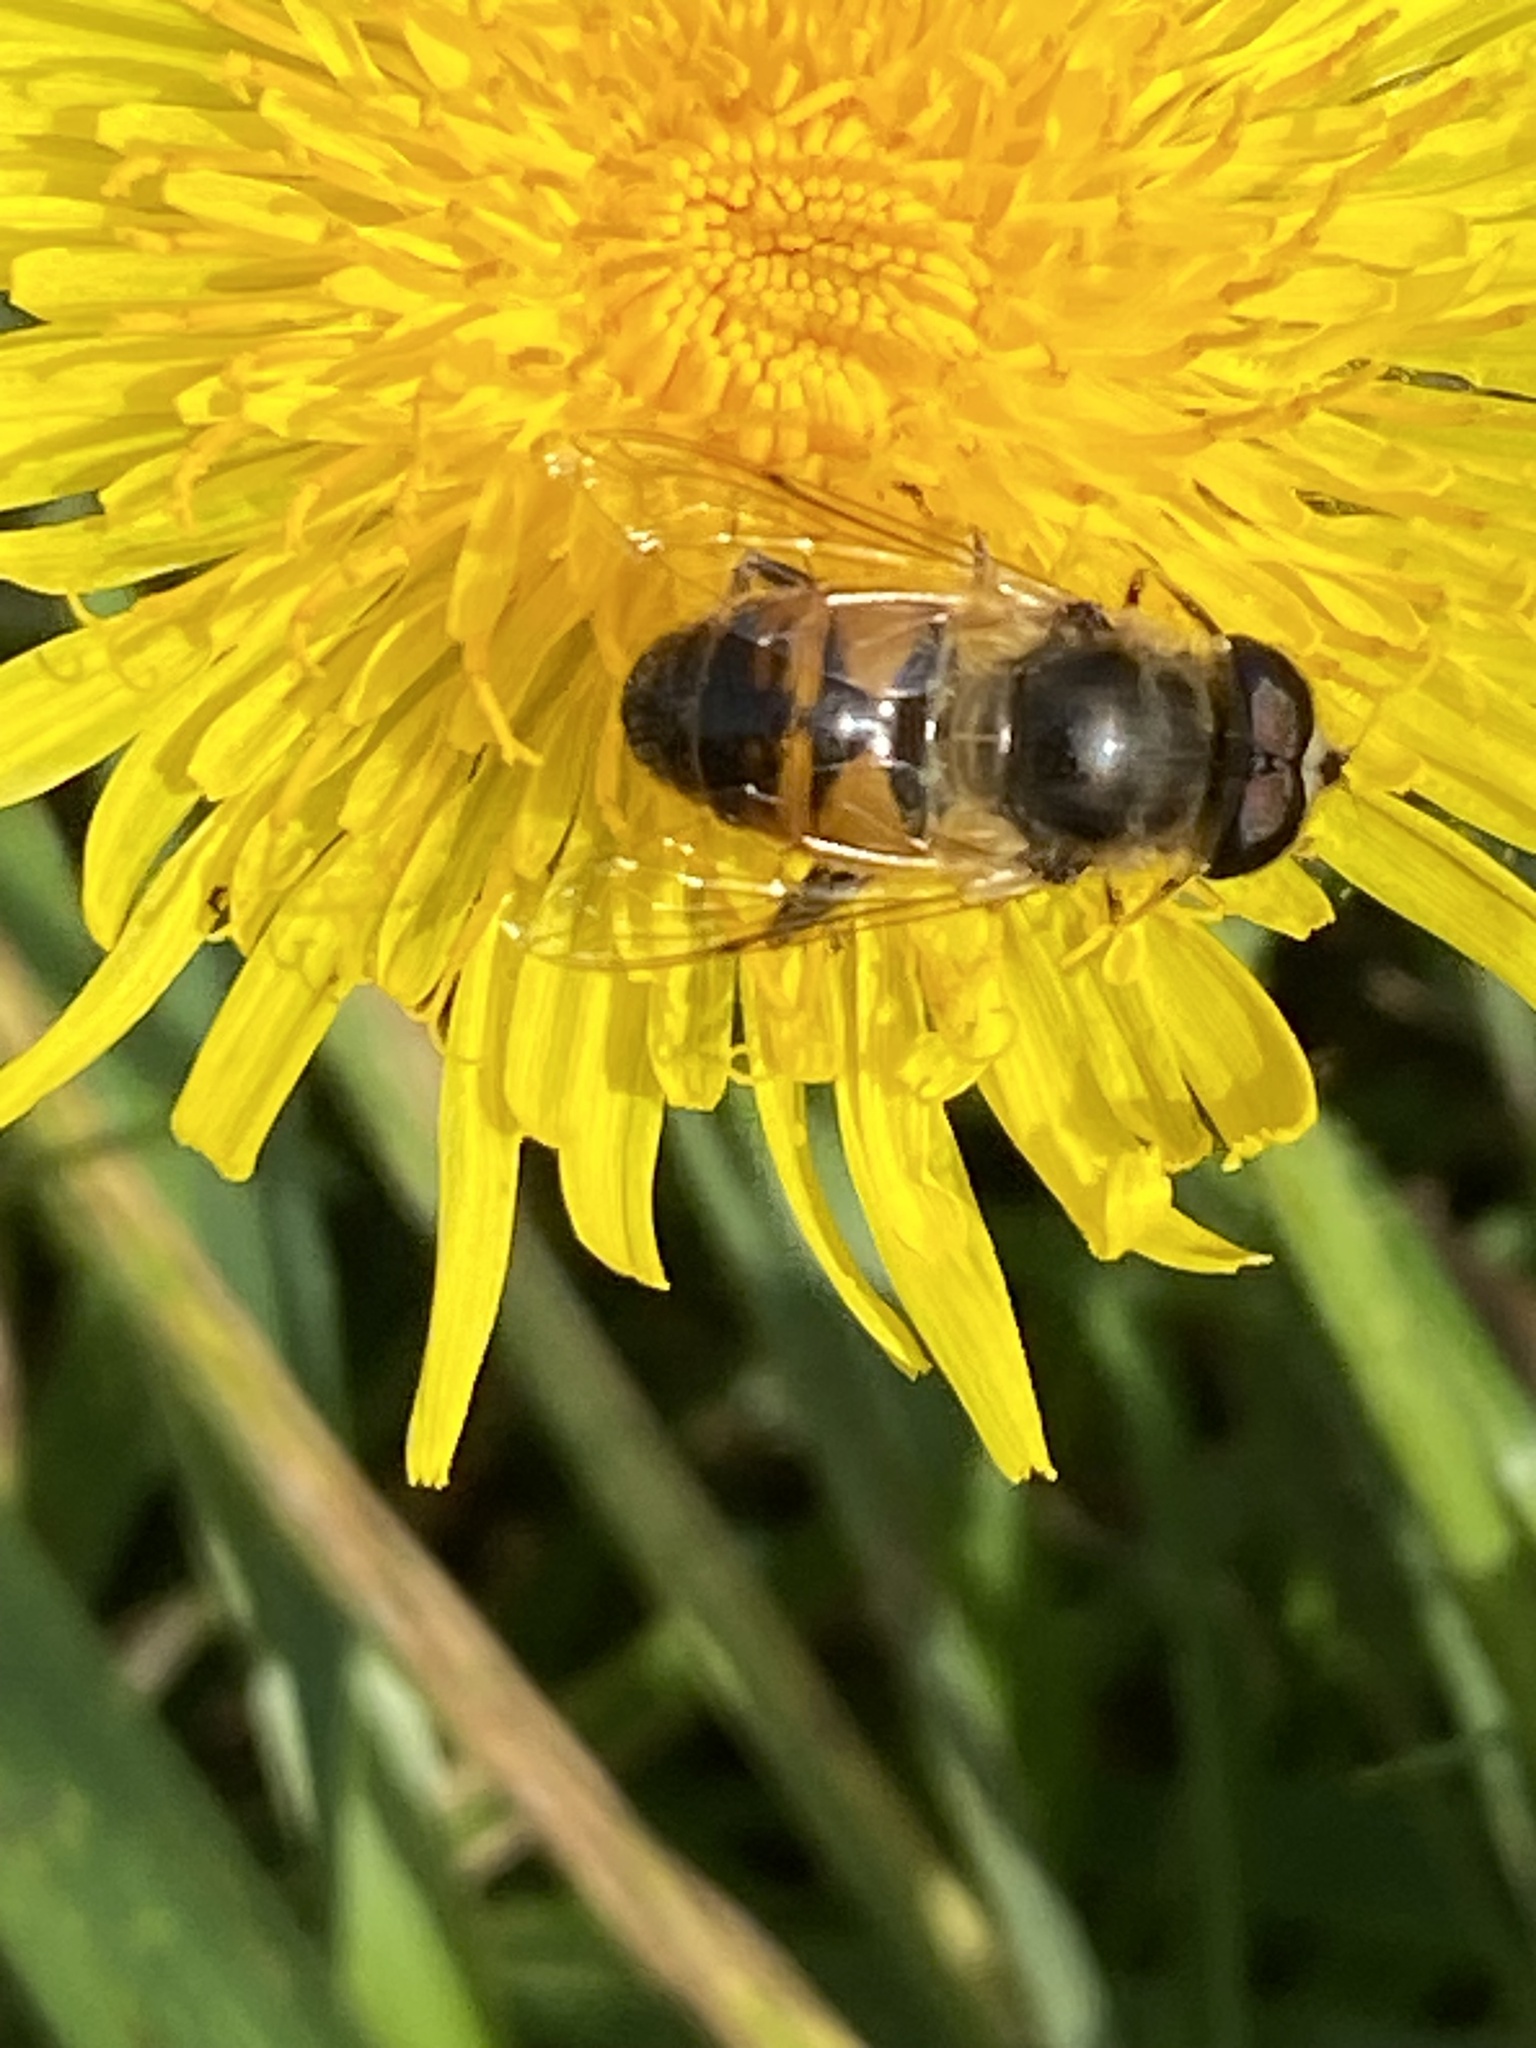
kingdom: Animalia
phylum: Arthropoda
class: Insecta
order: Diptera
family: Syrphidae
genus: Eristalis
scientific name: Eristalis tenax
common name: Drone fly
